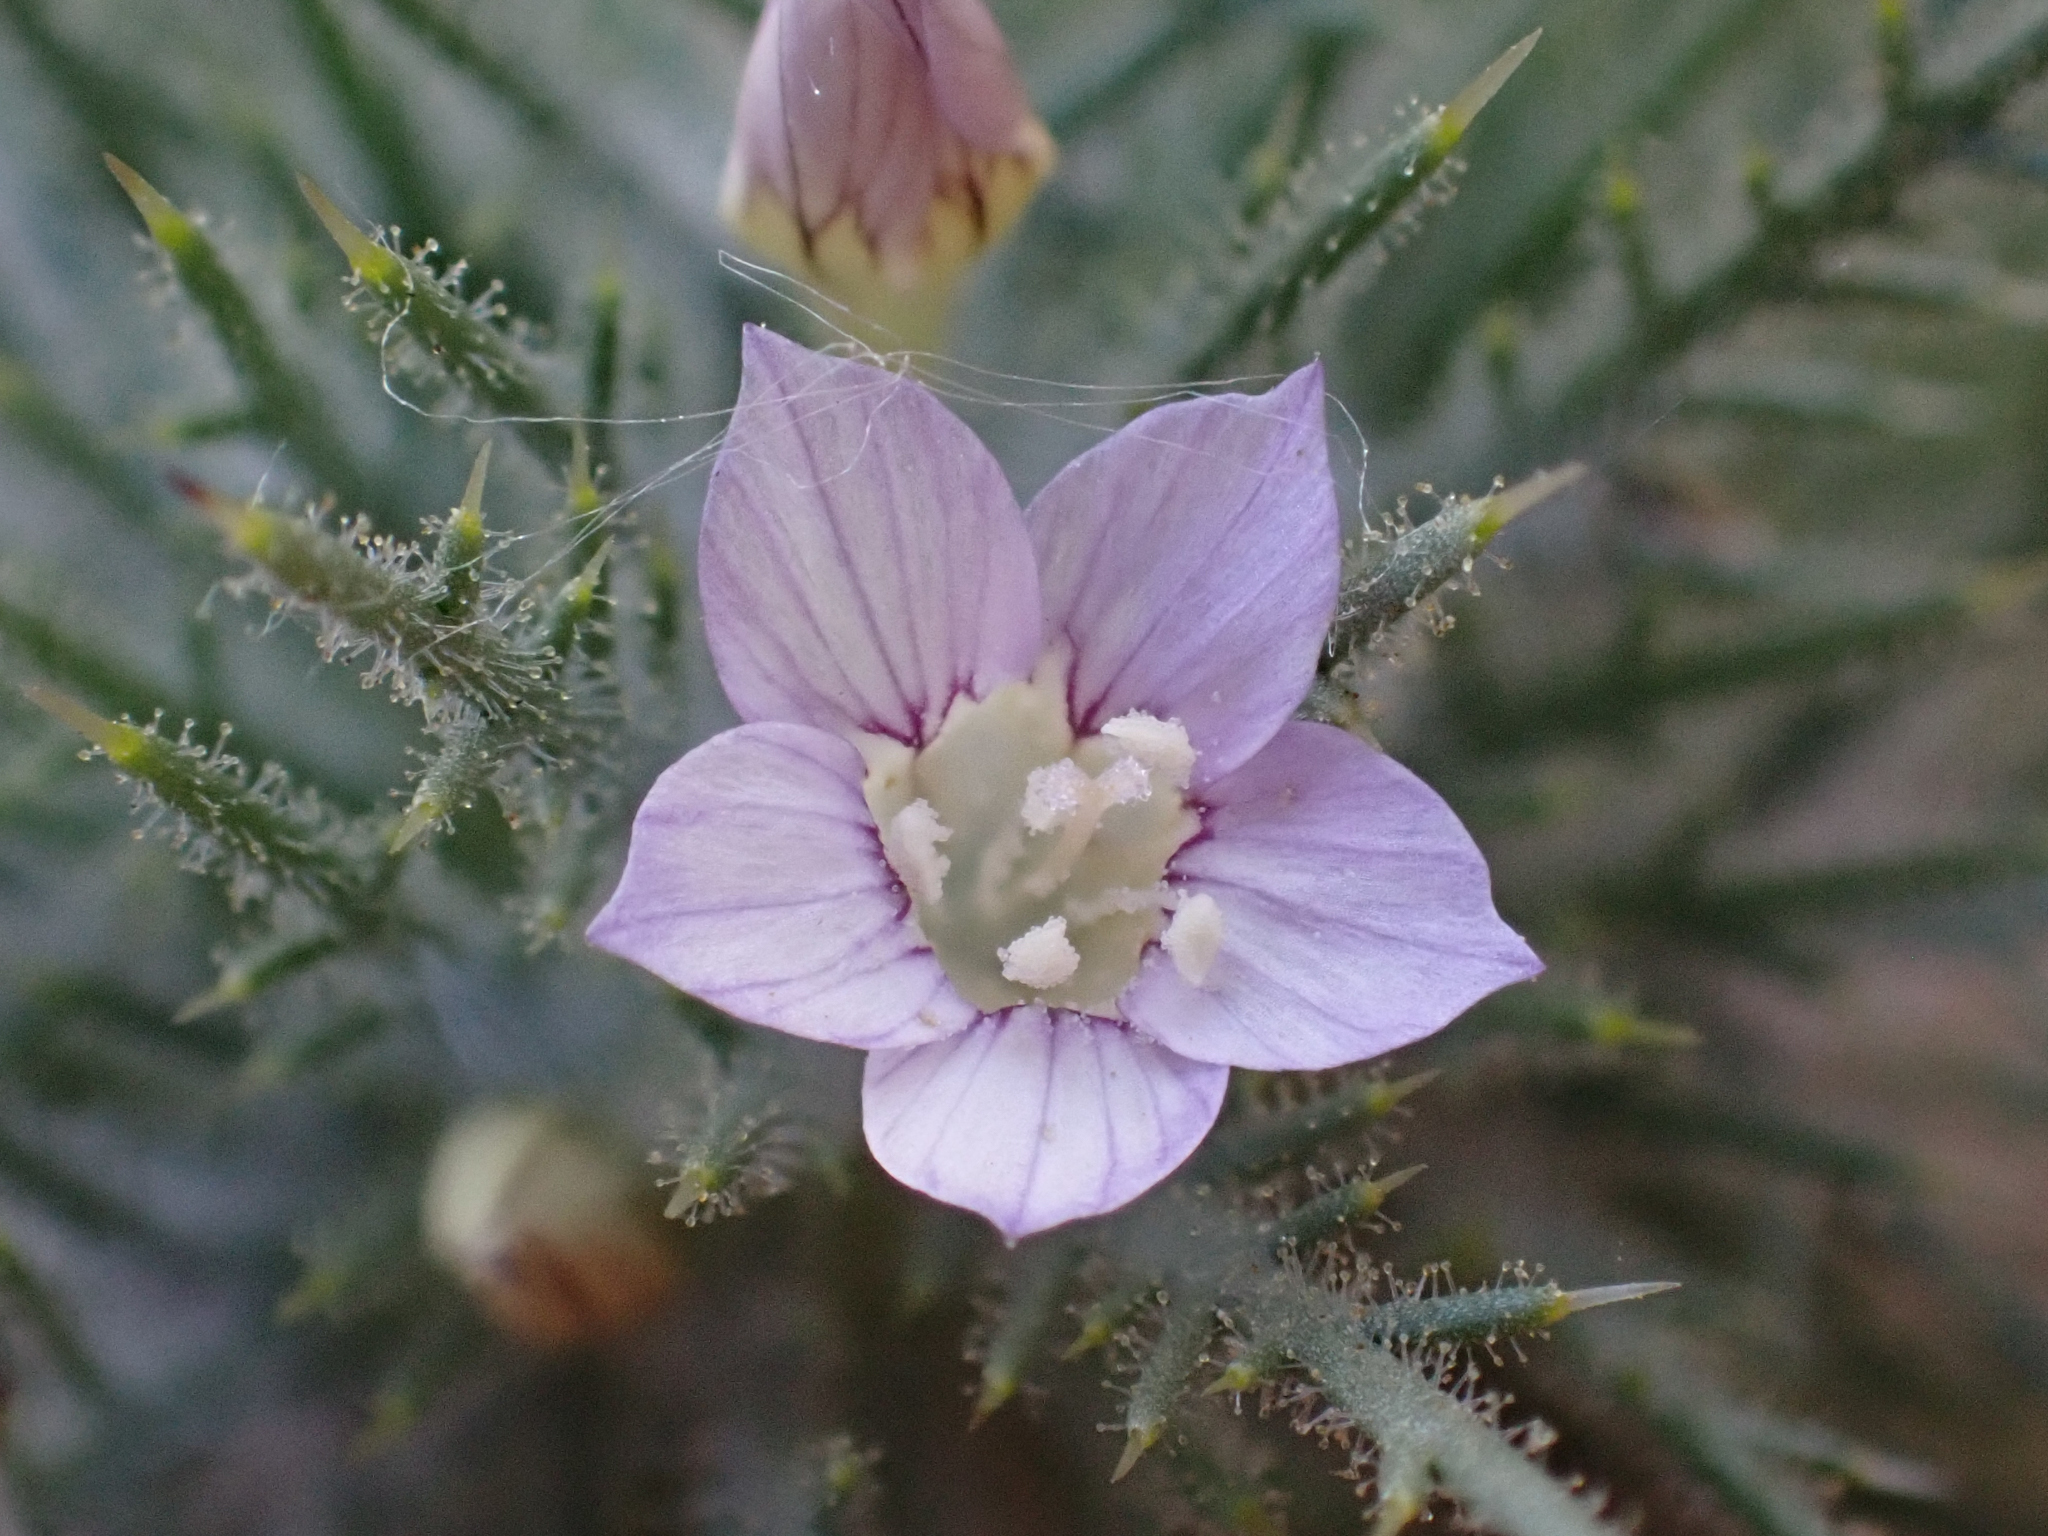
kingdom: Plantae
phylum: Tracheophyta
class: Magnoliopsida
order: Ericales
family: Polemoniaceae
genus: Navarretia
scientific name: Navarretia panochensis
